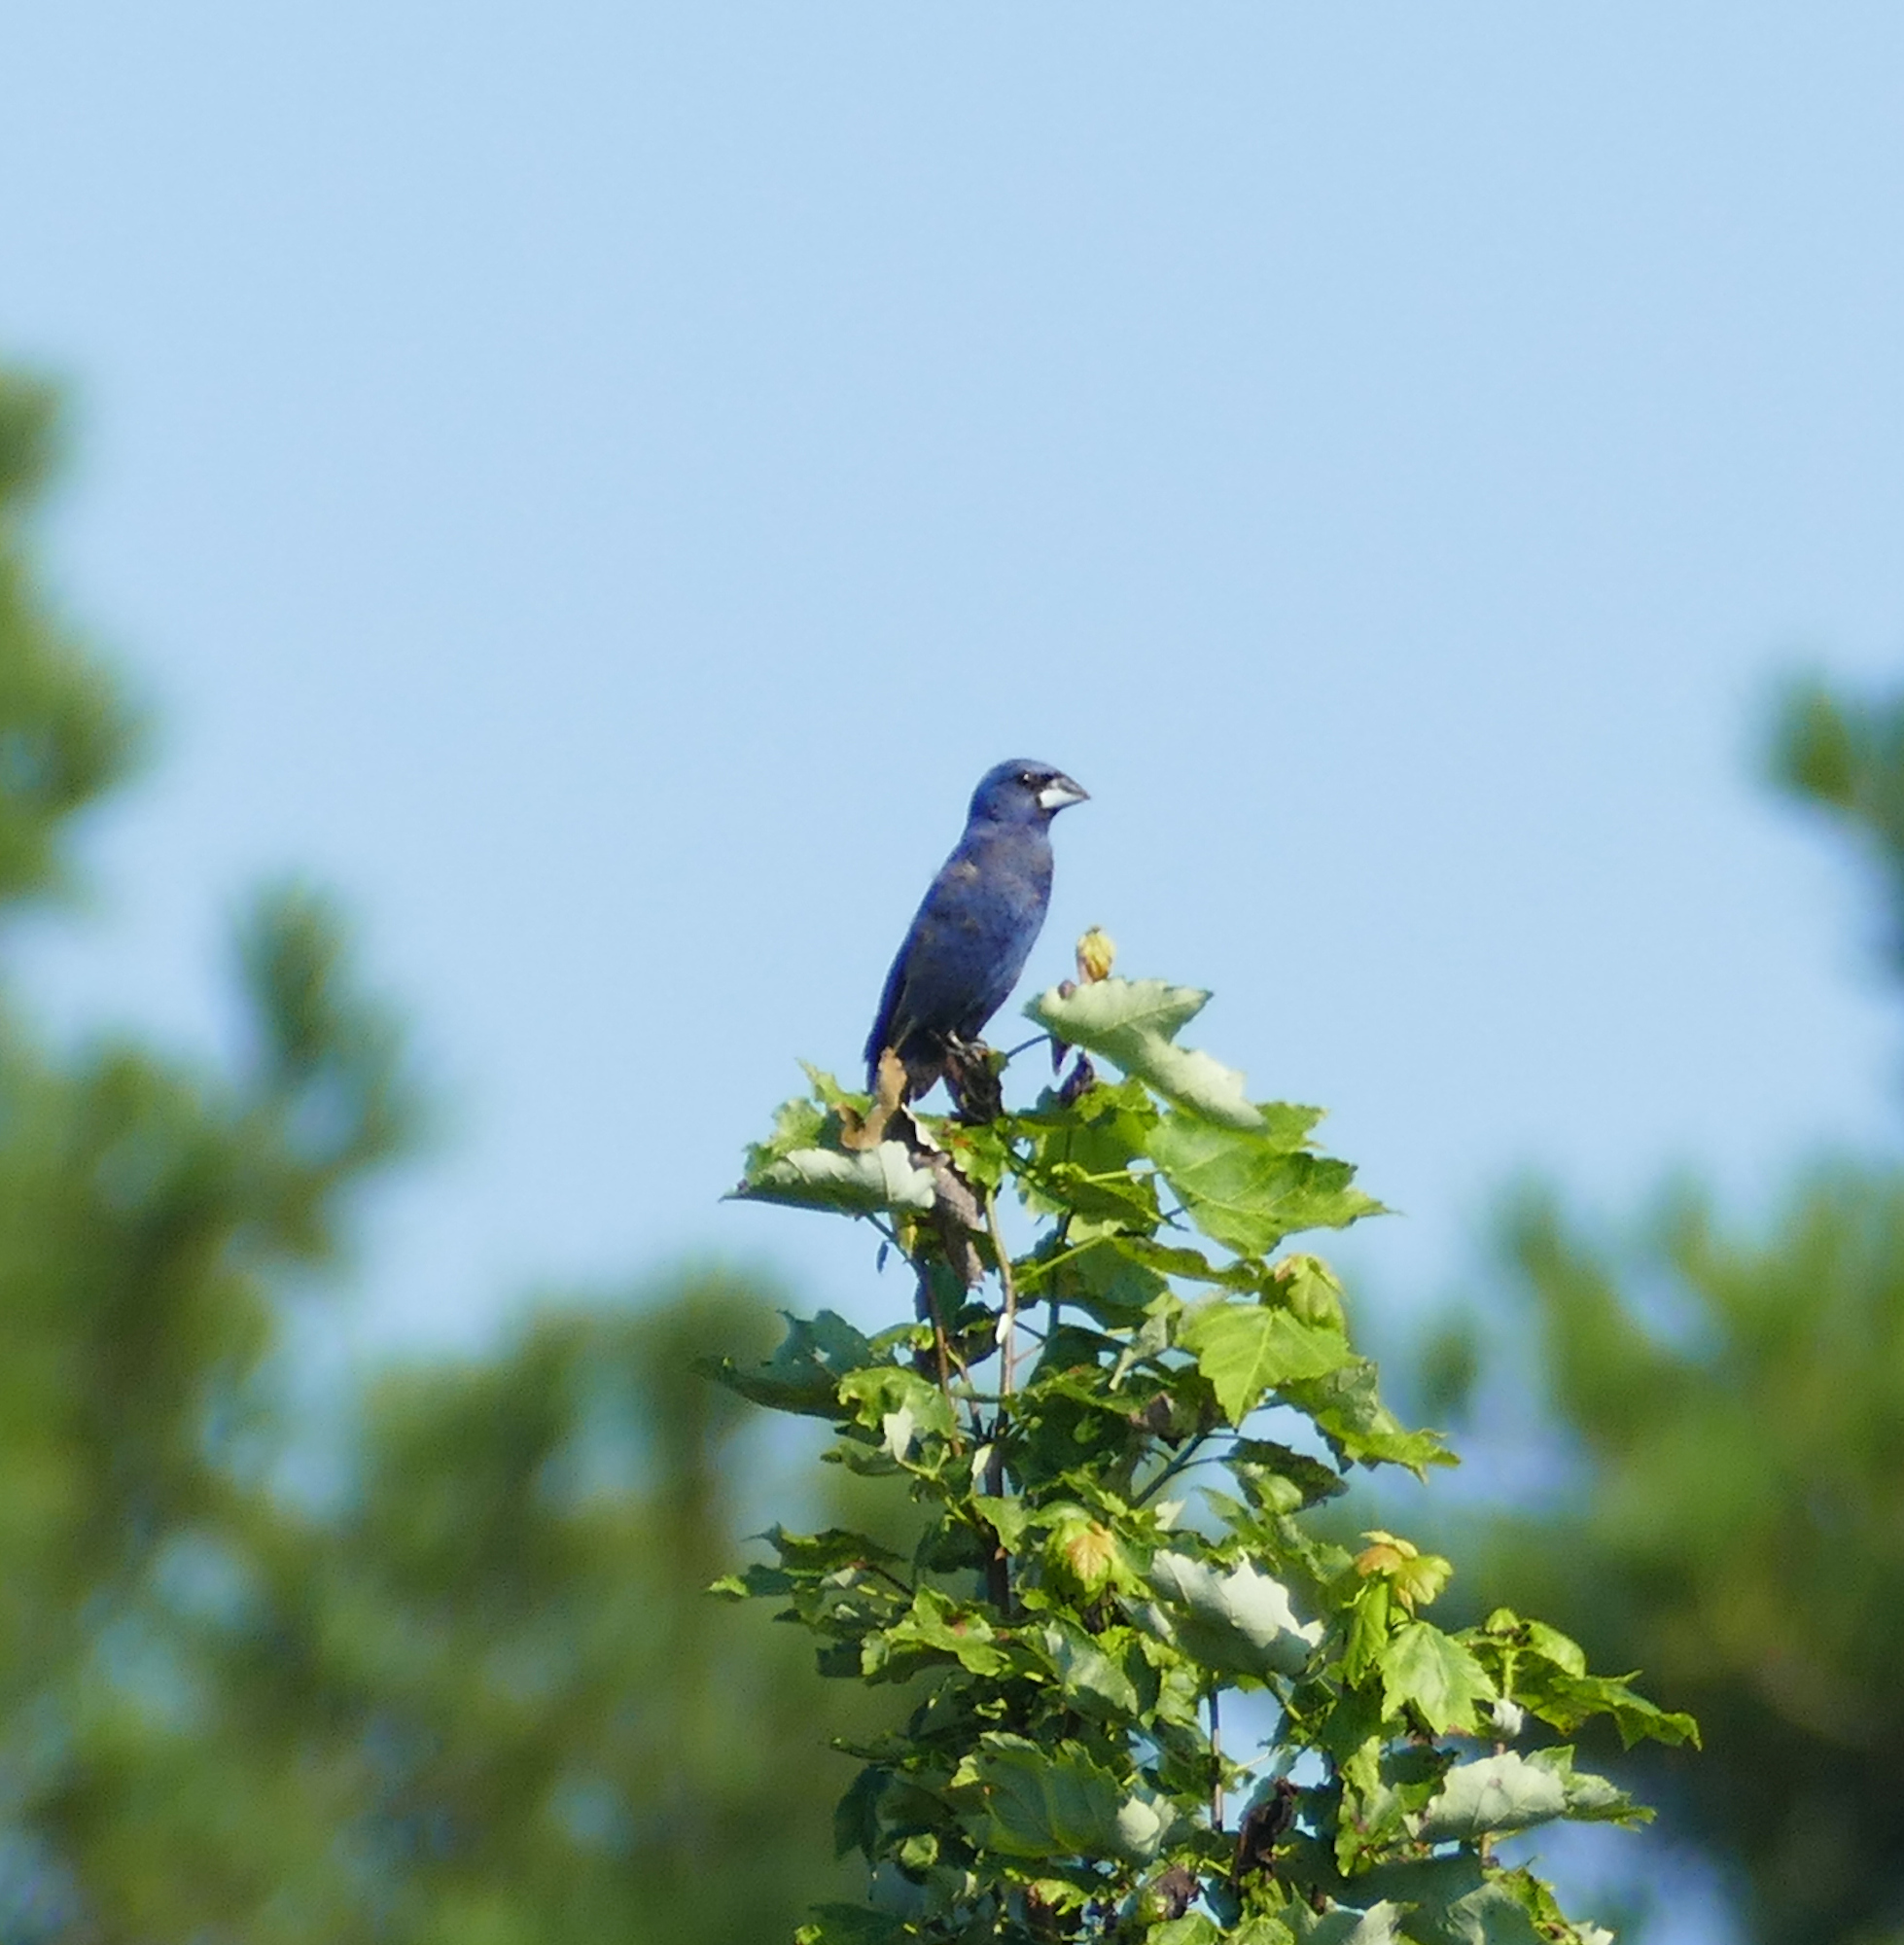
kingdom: Animalia
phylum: Chordata
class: Aves
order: Passeriformes
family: Cardinalidae
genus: Passerina
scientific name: Passerina caerulea
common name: Blue grosbeak
